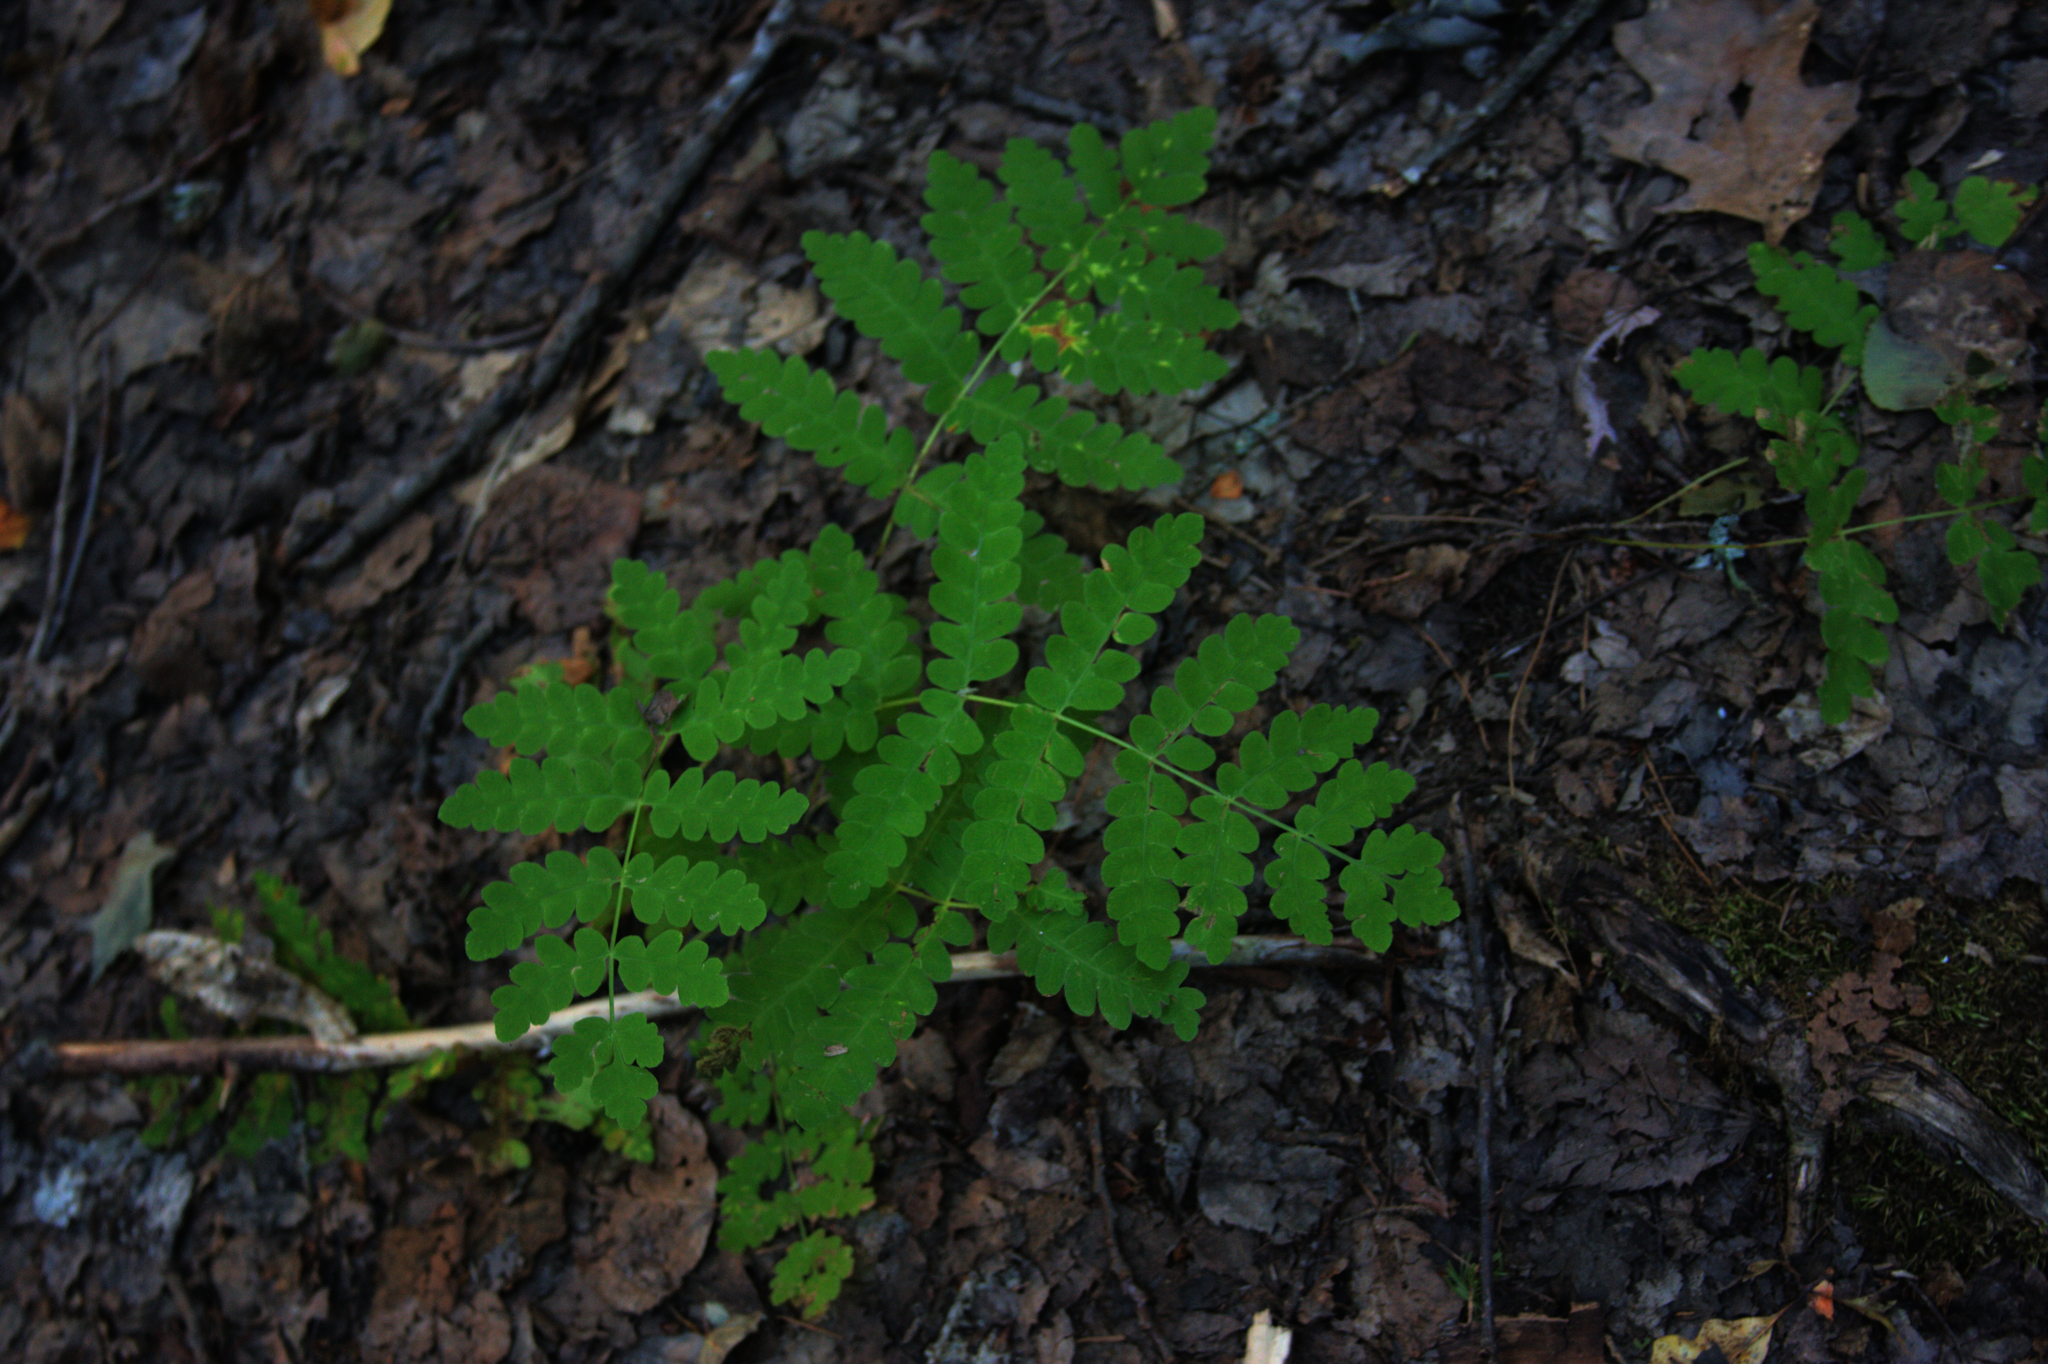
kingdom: Plantae
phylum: Tracheophyta
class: Polypodiopsida
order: Osmundales
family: Osmundaceae
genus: Claytosmunda
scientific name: Claytosmunda claytoniana
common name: Clayton's fern
